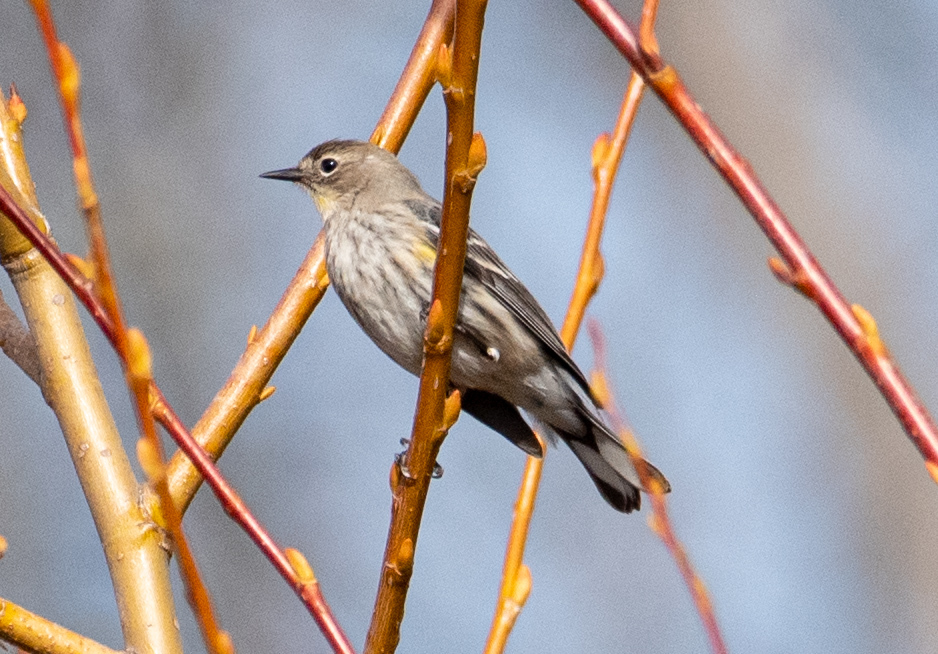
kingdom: Animalia
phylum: Chordata
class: Aves
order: Passeriformes
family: Parulidae
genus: Setophaga
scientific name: Setophaga auduboni
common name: Audubon's warbler
